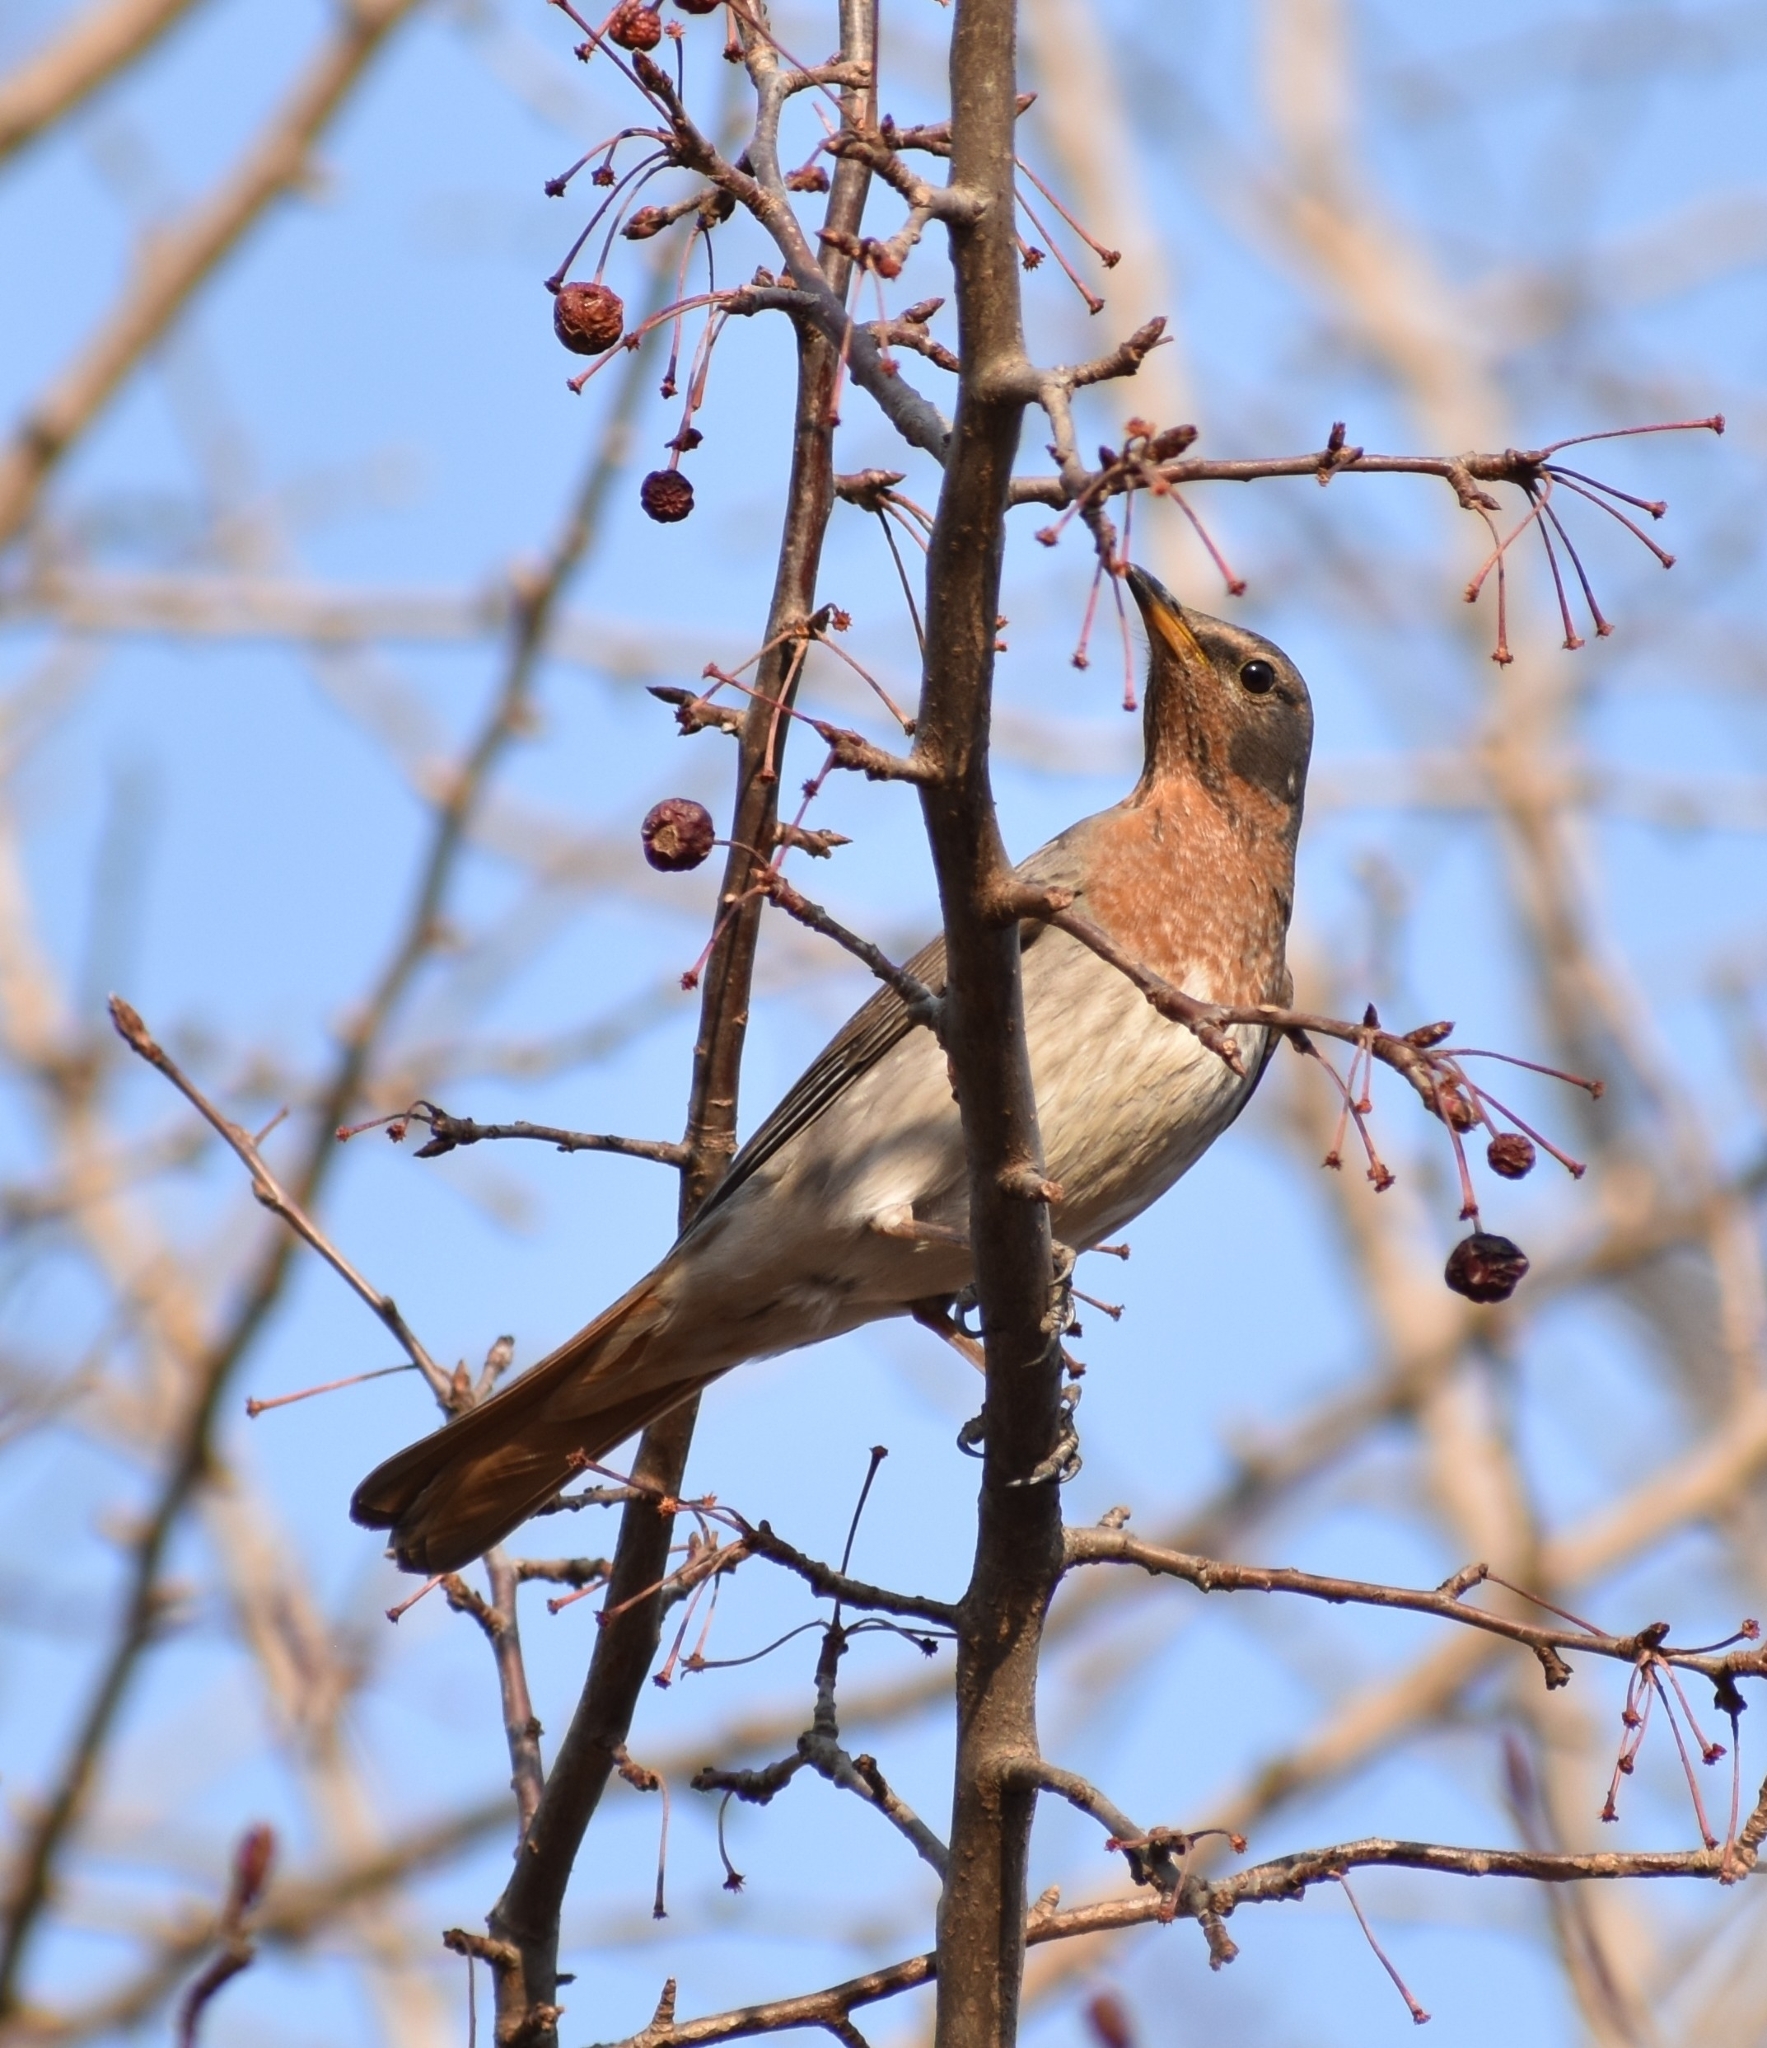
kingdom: Animalia
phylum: Chordata
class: Aves
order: Passeriformes
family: Turdidae
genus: Turdus
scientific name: Turdus ruficollis
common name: Red-throated thrush
